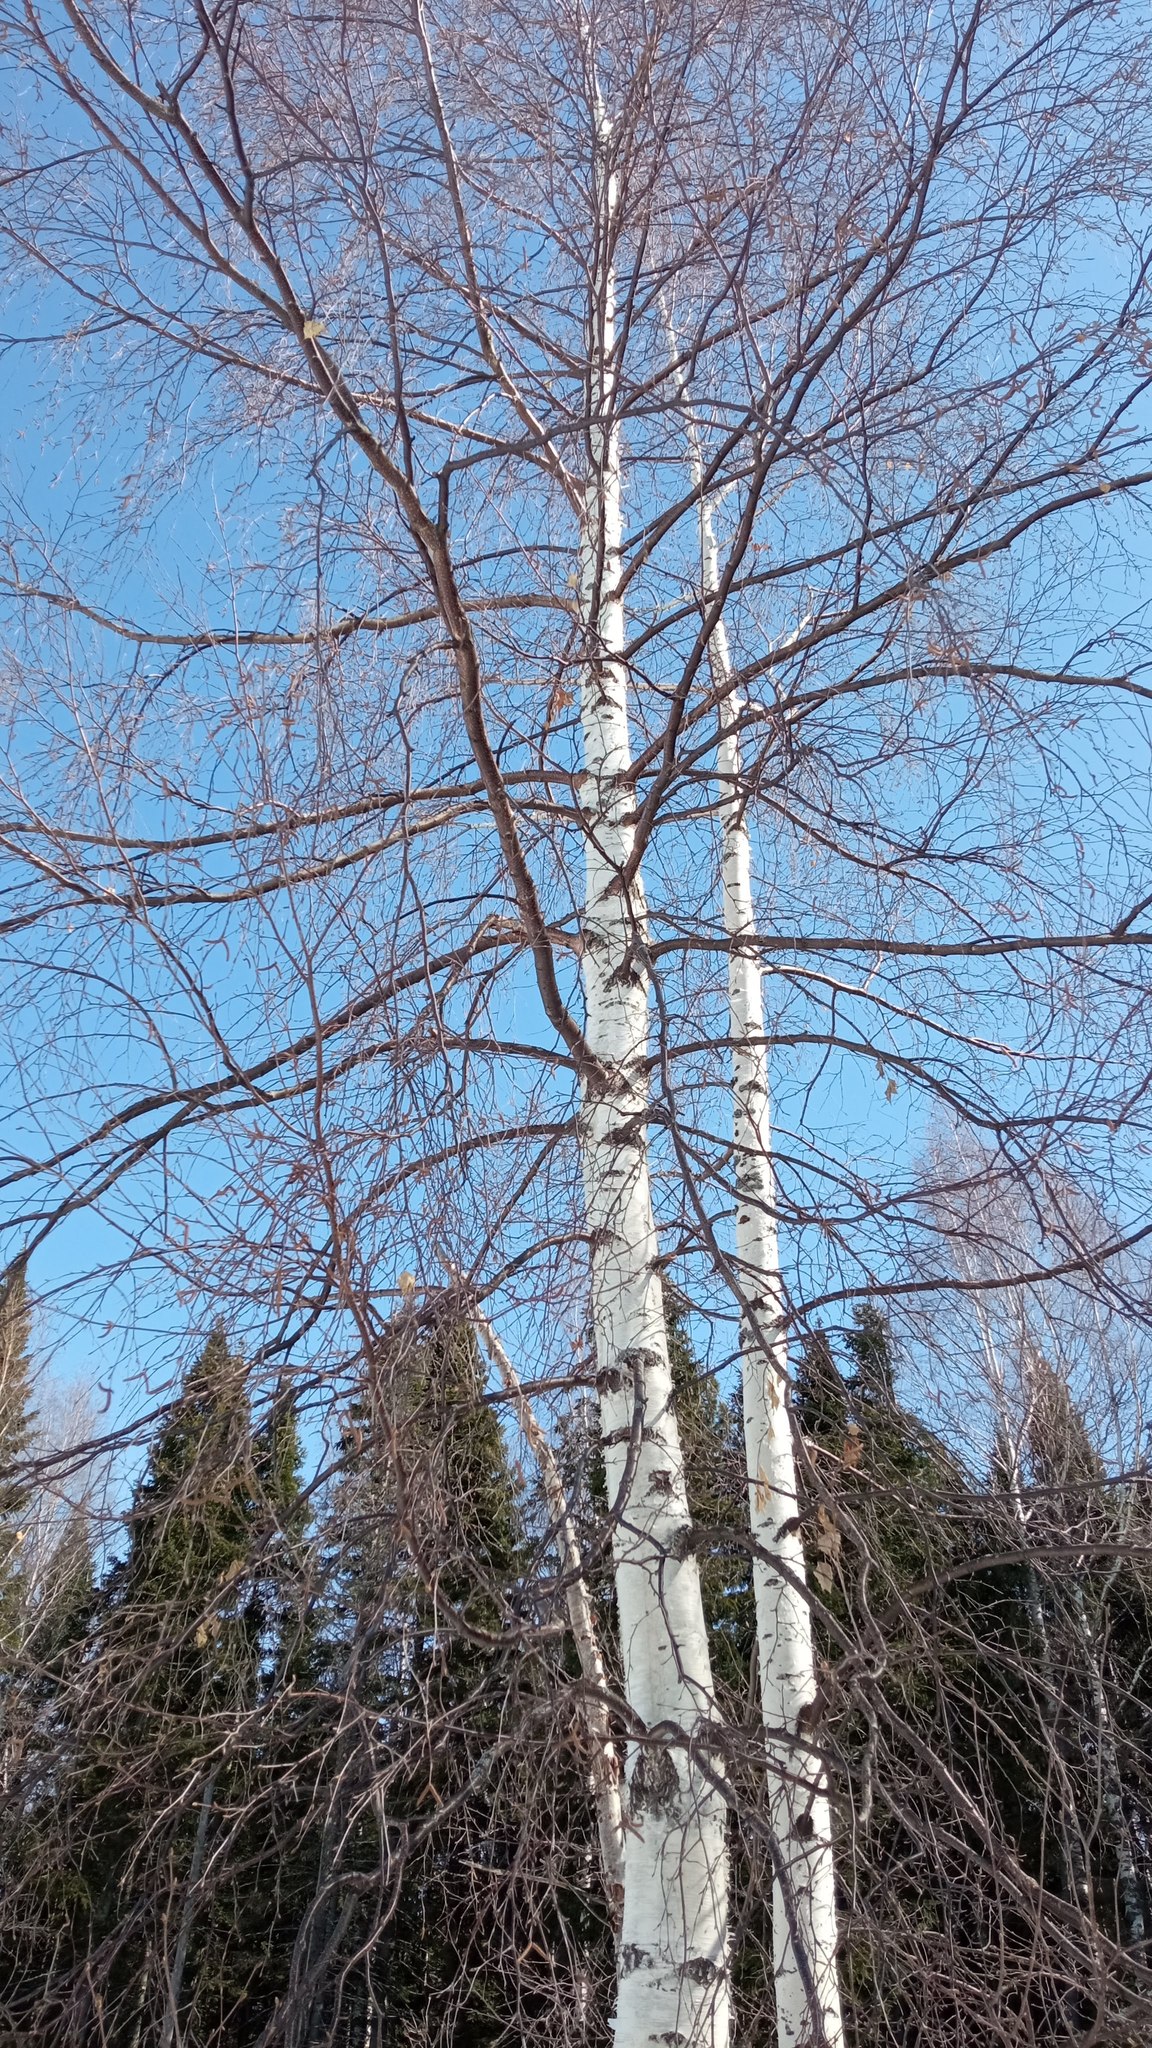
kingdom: Plantae
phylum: Tracheophyta
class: Magnoliopsida
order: Fagales
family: Betulaceae
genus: Betula
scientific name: Betula pubescens
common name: Downy birch
